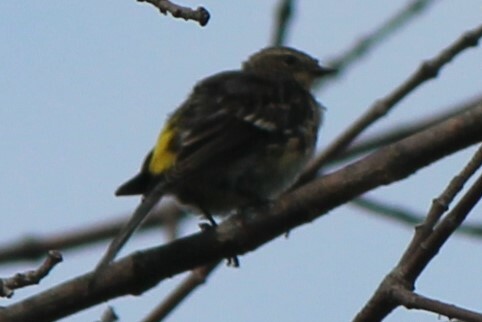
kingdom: Animalia
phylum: Chordata
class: Aves
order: Passeriformes
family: Parulidae
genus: Setophaga
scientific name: Setophaga coronata
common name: Myrtle warbler
